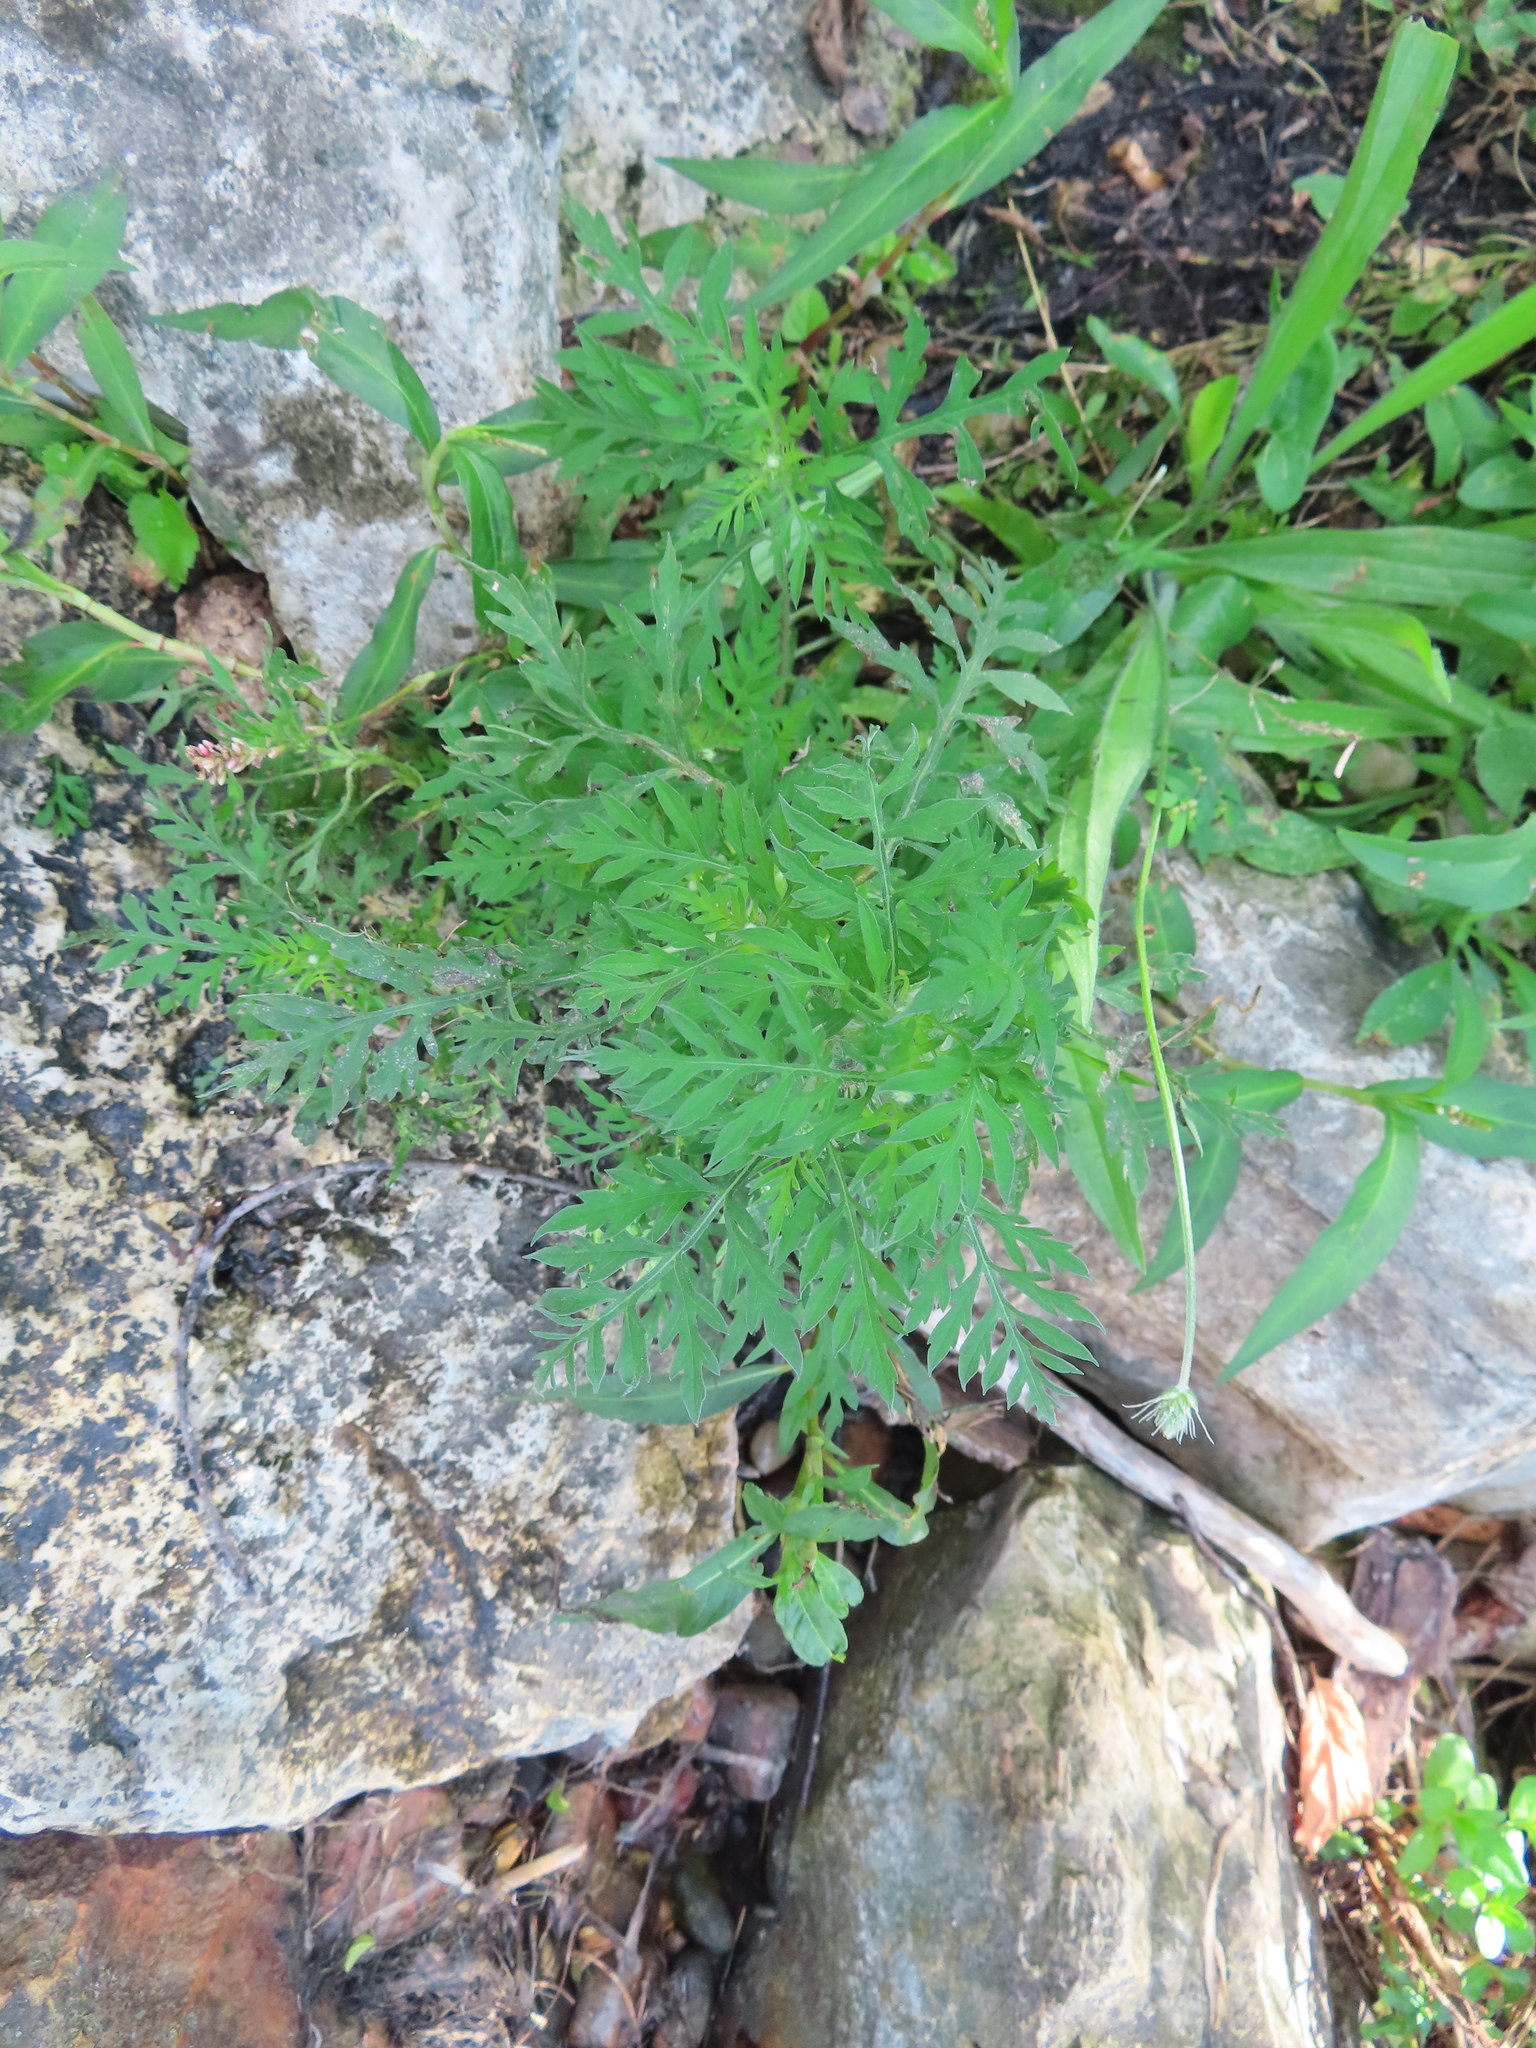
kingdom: Plantae
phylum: Tracheophyta
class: Magnoliopsida
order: Asterales
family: Asteraceae
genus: Ambrosia
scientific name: Ambrosia artemisiifolia
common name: Annual ragweed
